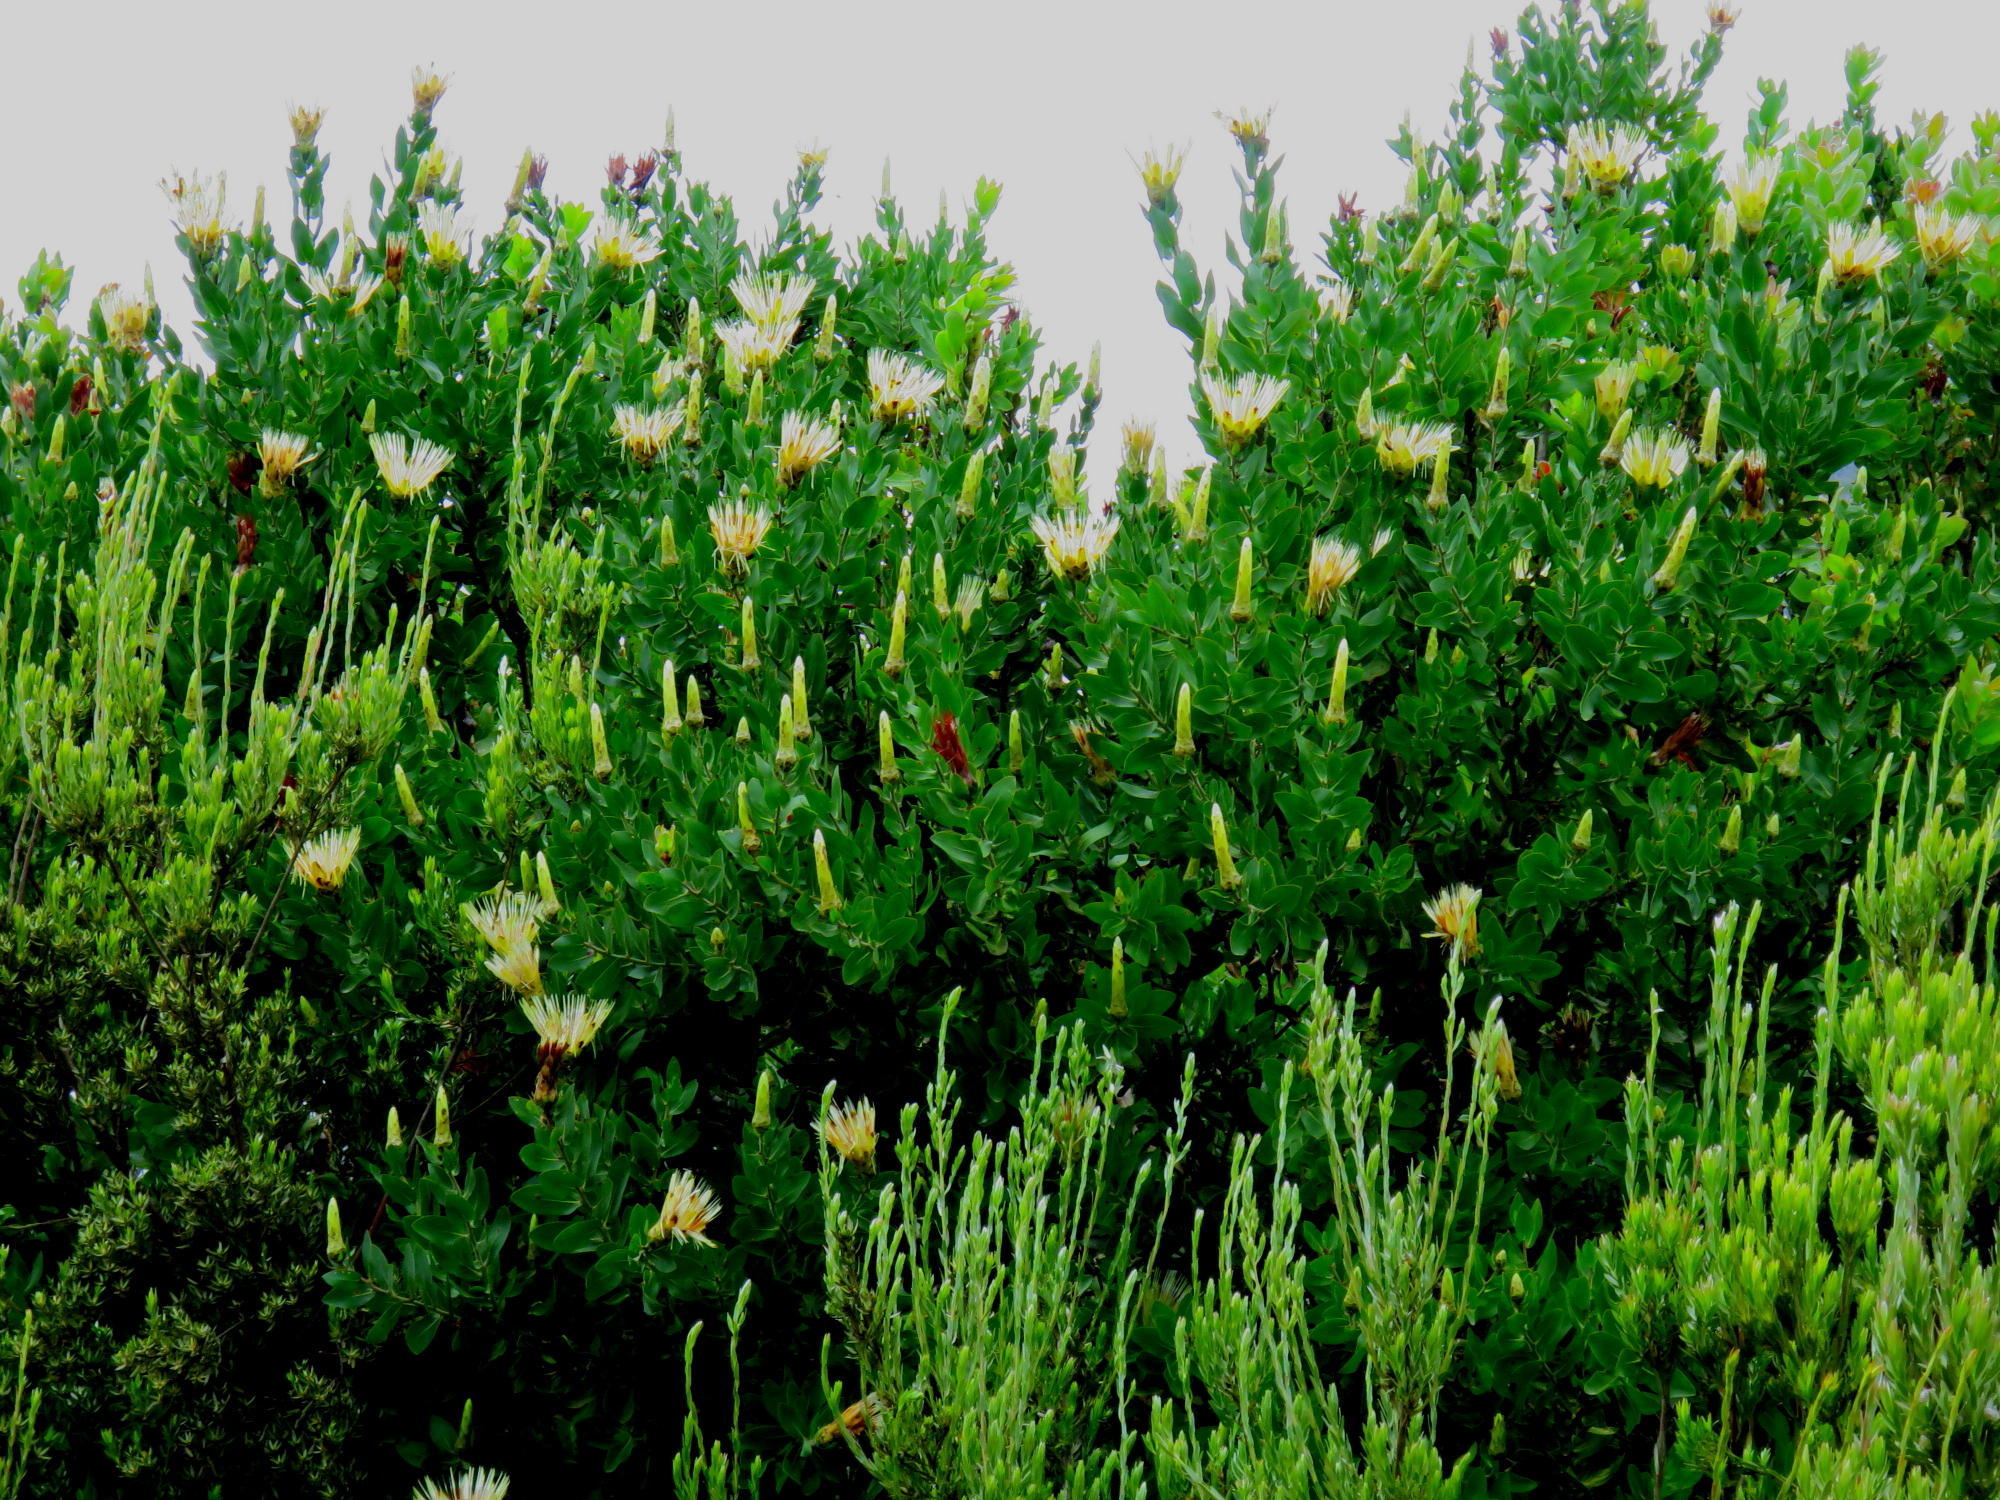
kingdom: Plantae
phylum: Tracheophyta
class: Magnoliopsida
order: Proteales
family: Proteaceae
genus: Protea
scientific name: Protea aurea
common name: Shuttlecock sugarbush
